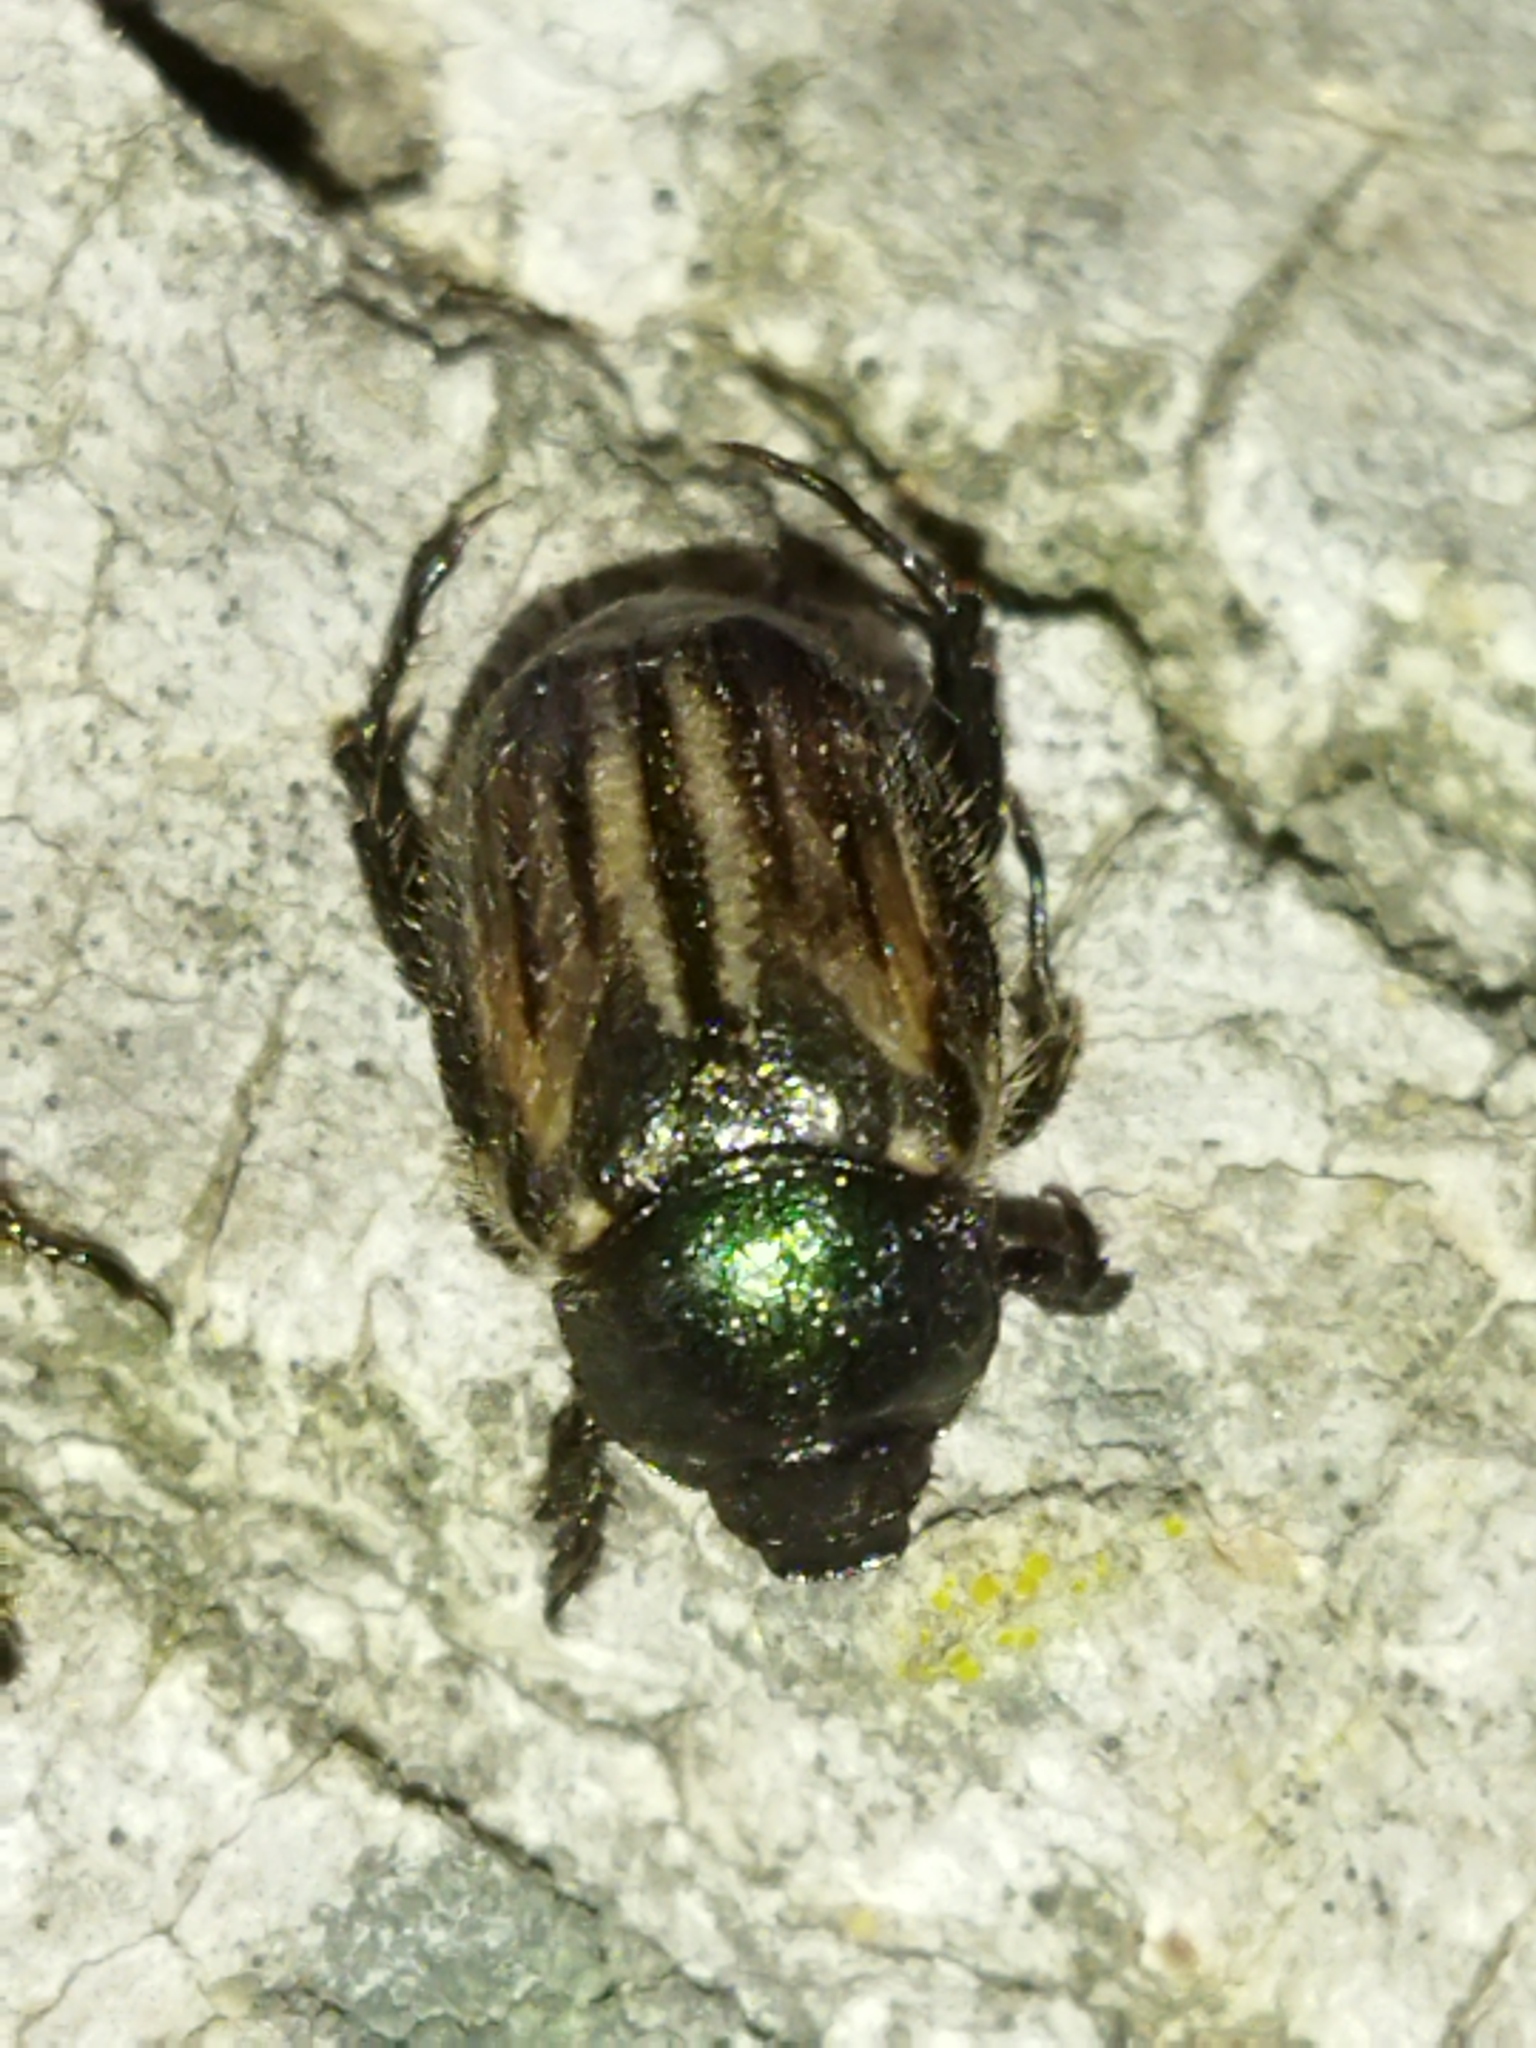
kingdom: Animalia
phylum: Arthropoda
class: Insecta
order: Coleoptera
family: Scarabaeidae
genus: Blitopertha
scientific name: Blitopertha lineolata
